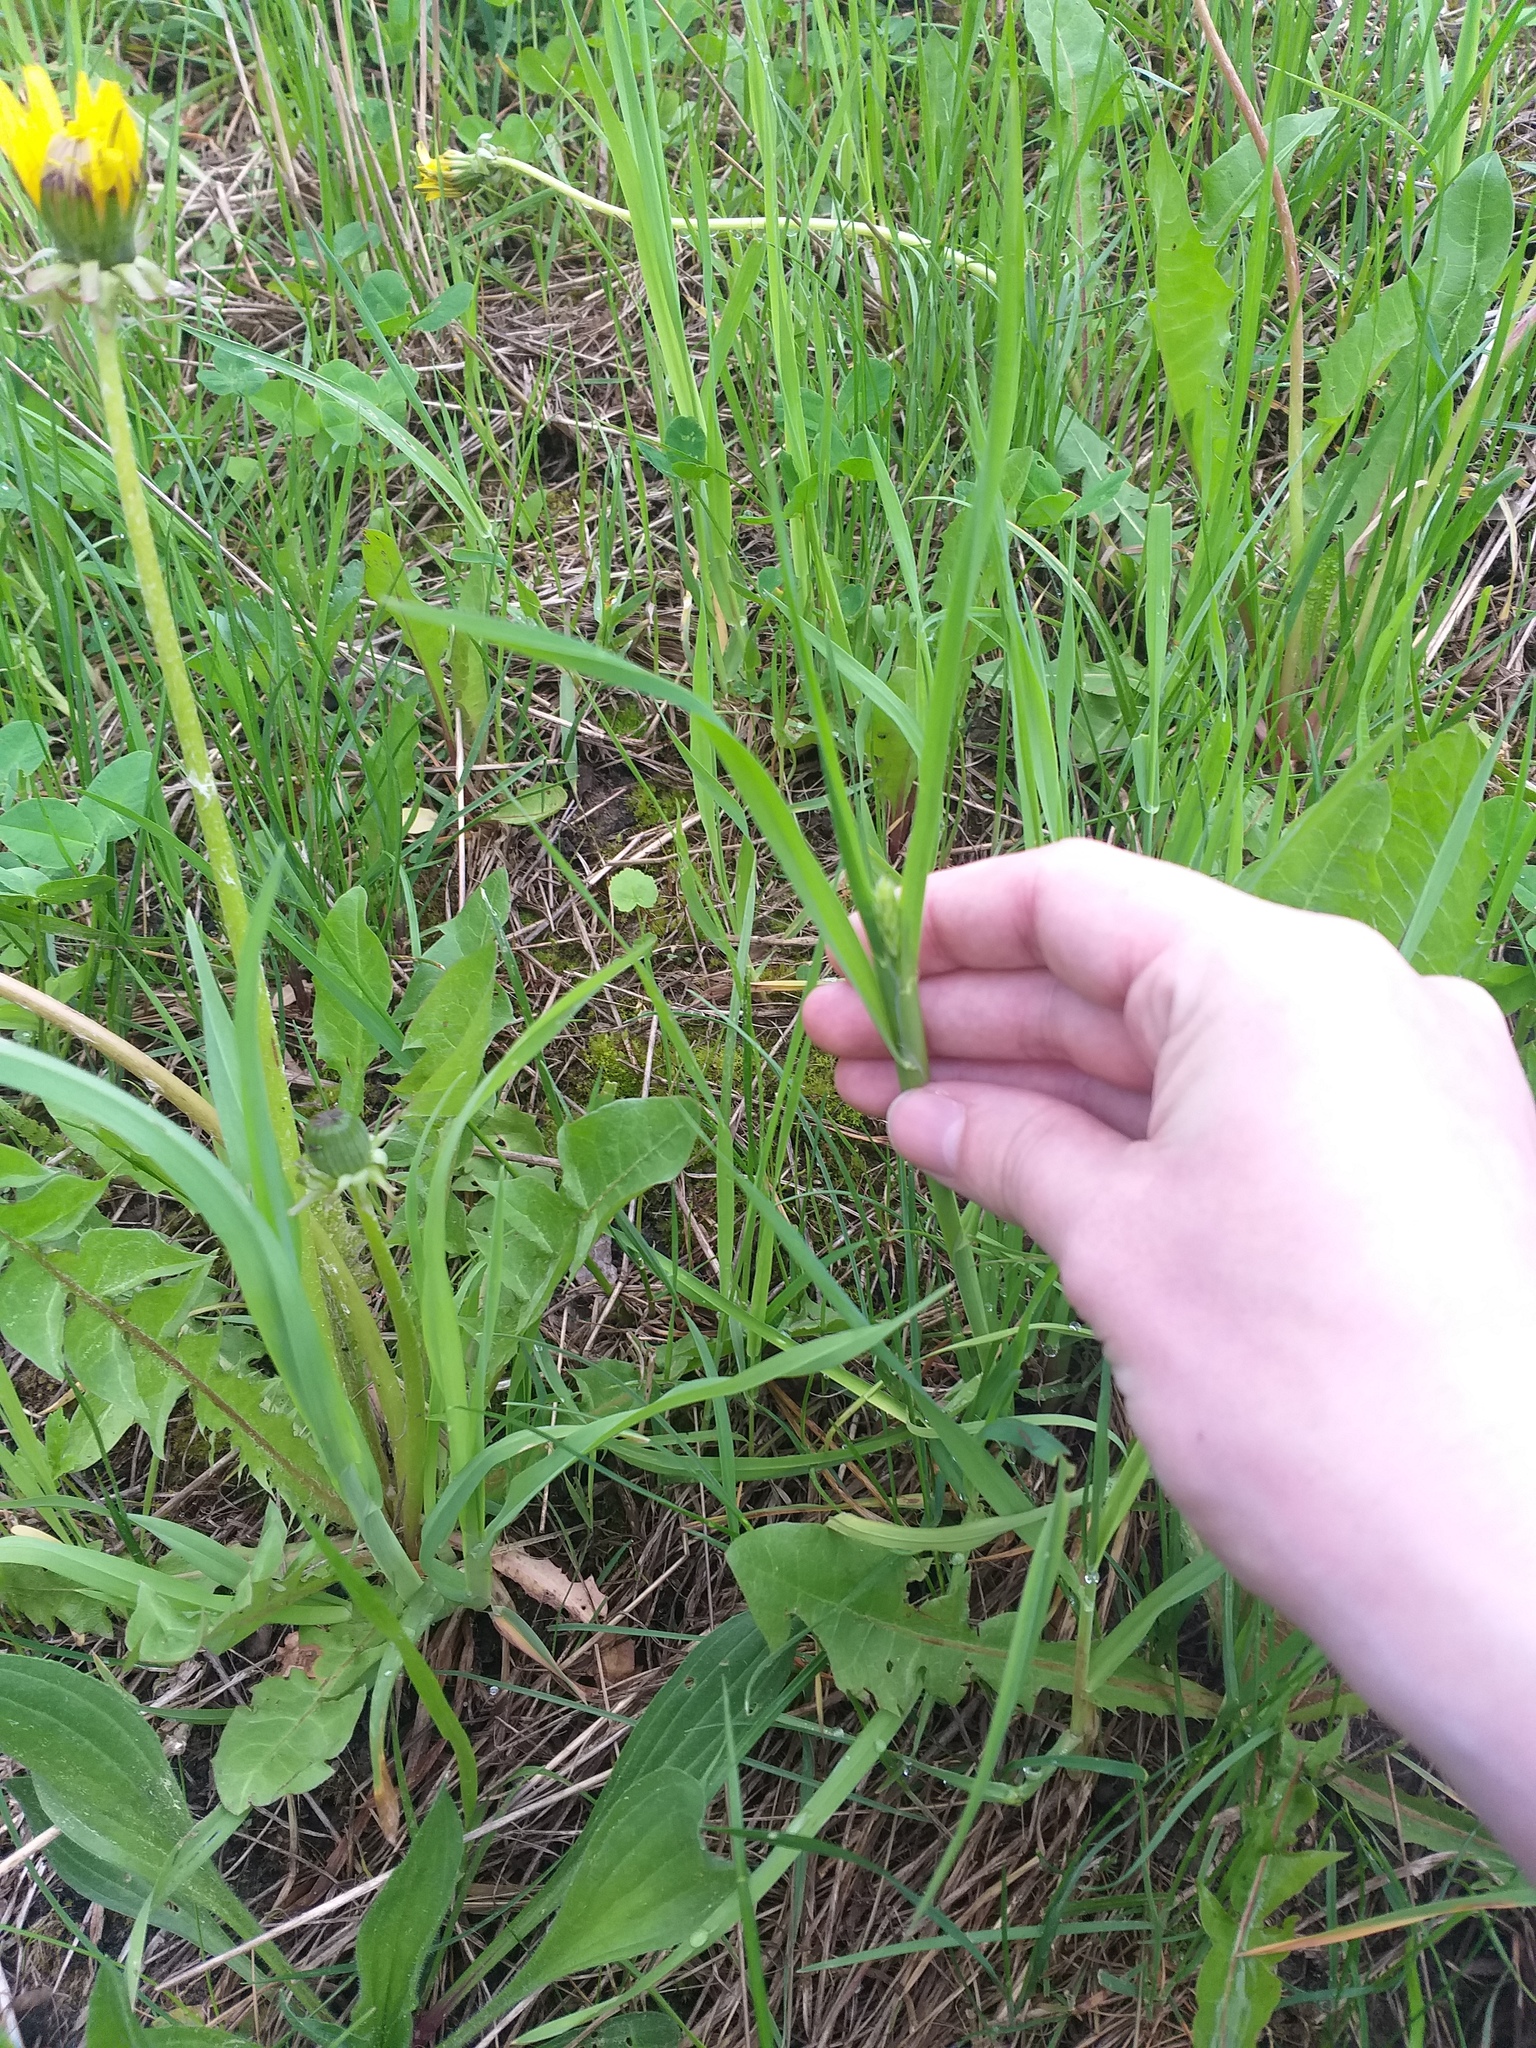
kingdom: Plantae
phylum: Tracheophyta
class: Liliopsida
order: Poales
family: Poaceae
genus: Dactylis
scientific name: Dactylis glomerata
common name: Orchardgrass
